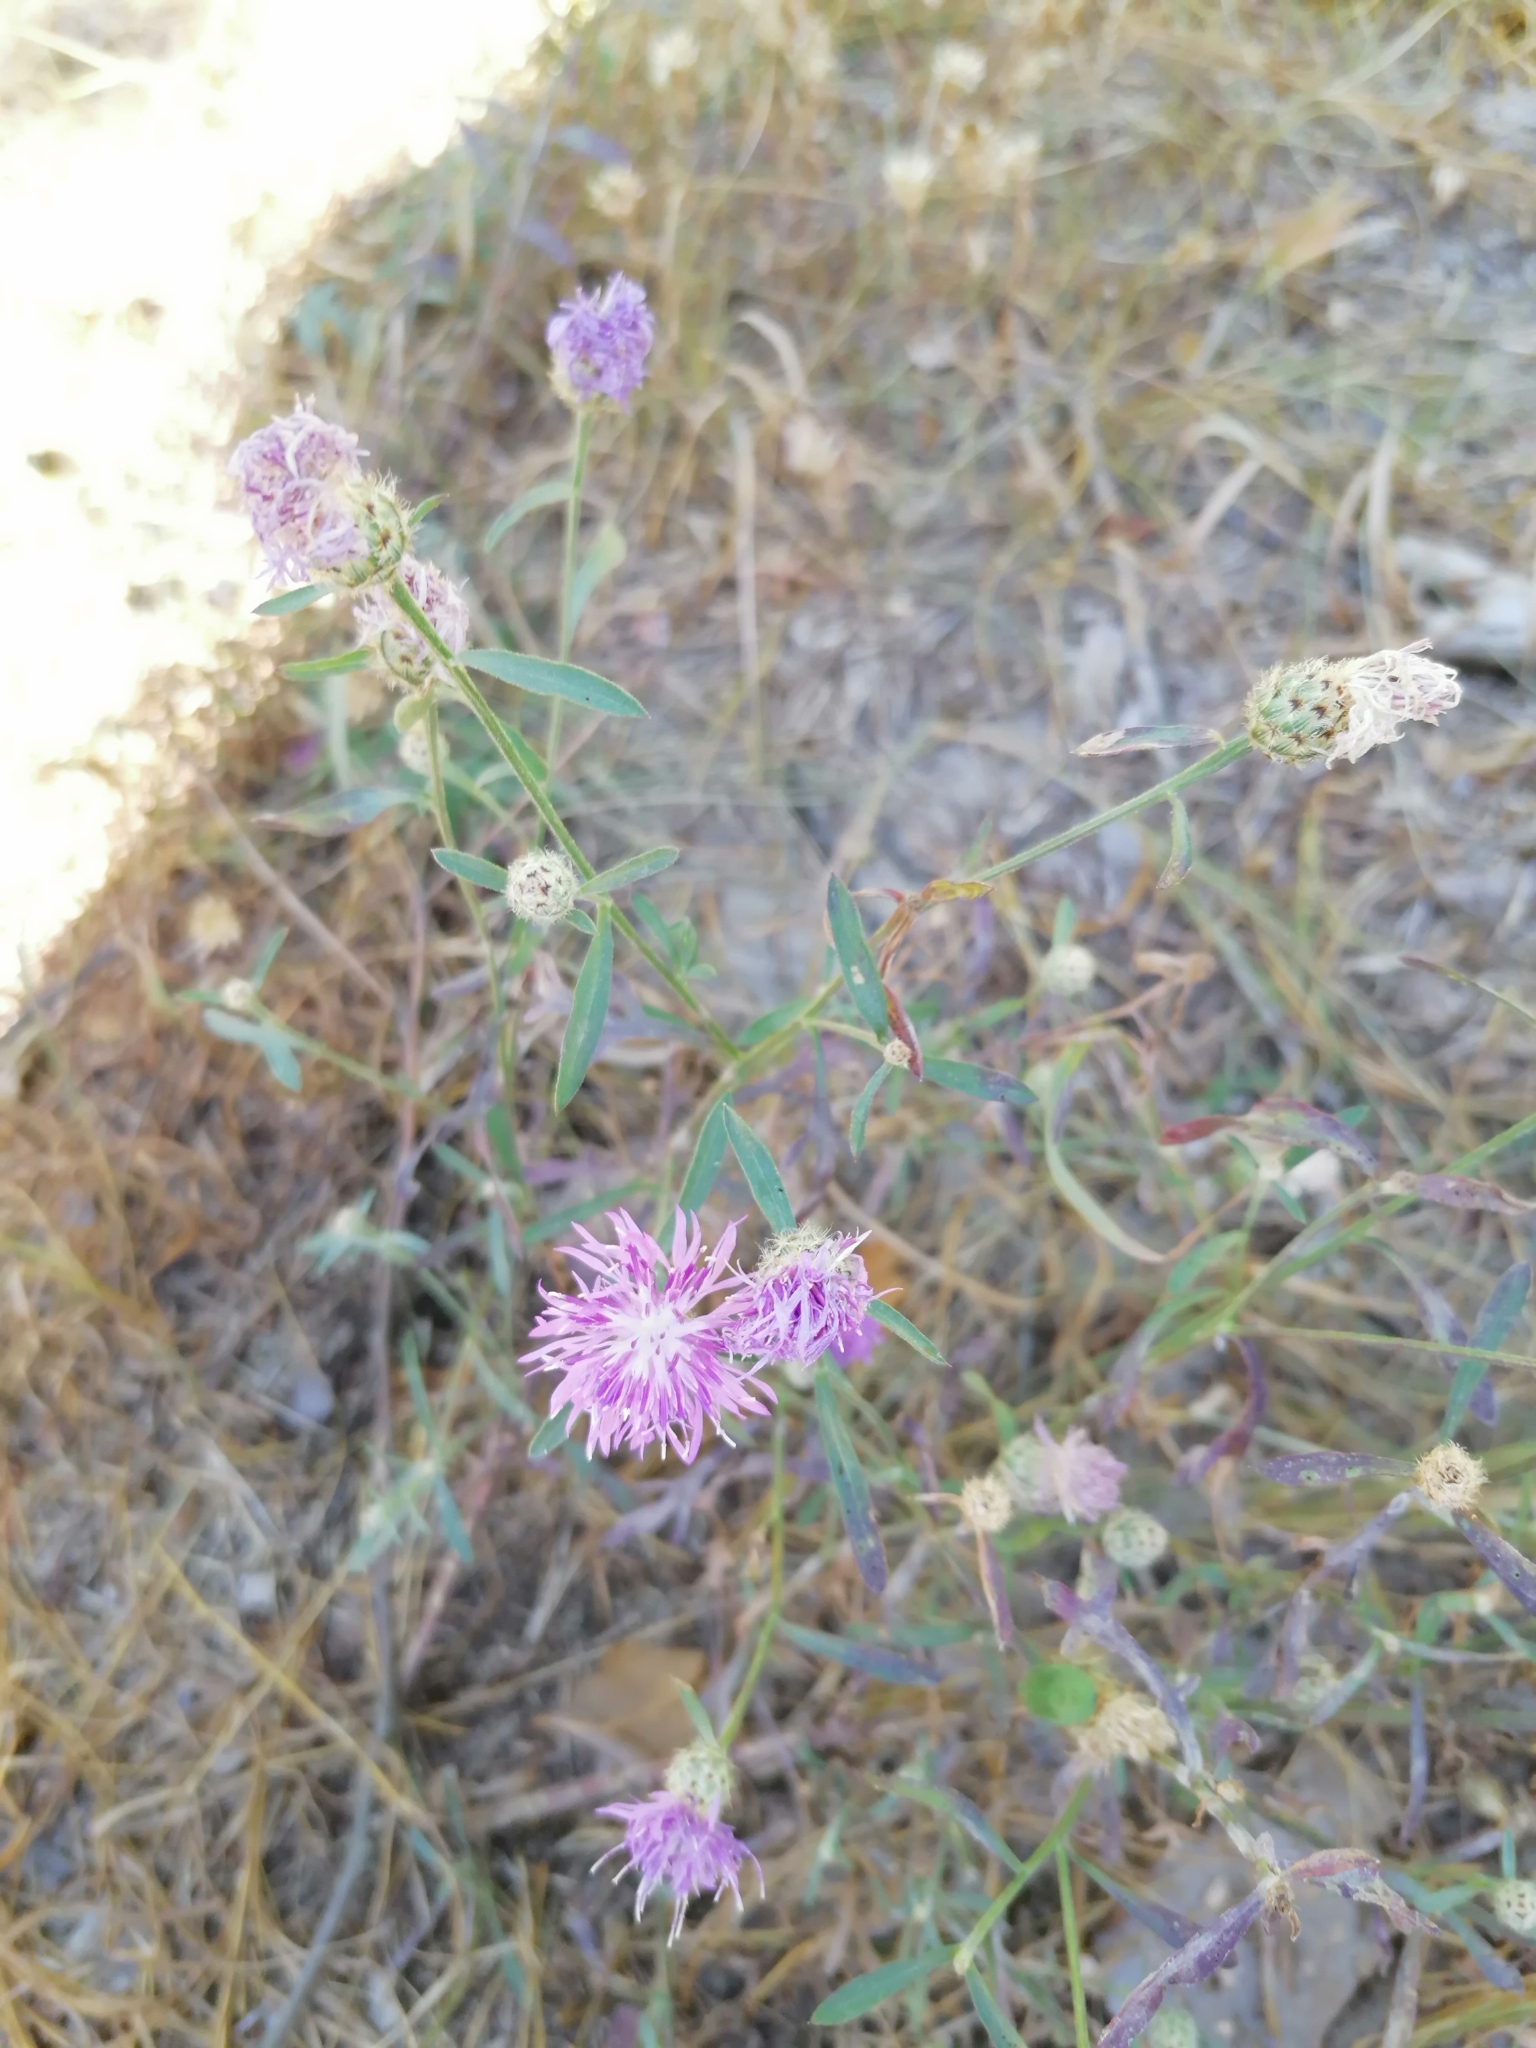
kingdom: Plantae
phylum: Tracheophyta
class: Magnoliopsida
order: Asterales
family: Asteraceae
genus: Centaurea
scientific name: Centaurea stoebe
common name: Spotted knapweed
